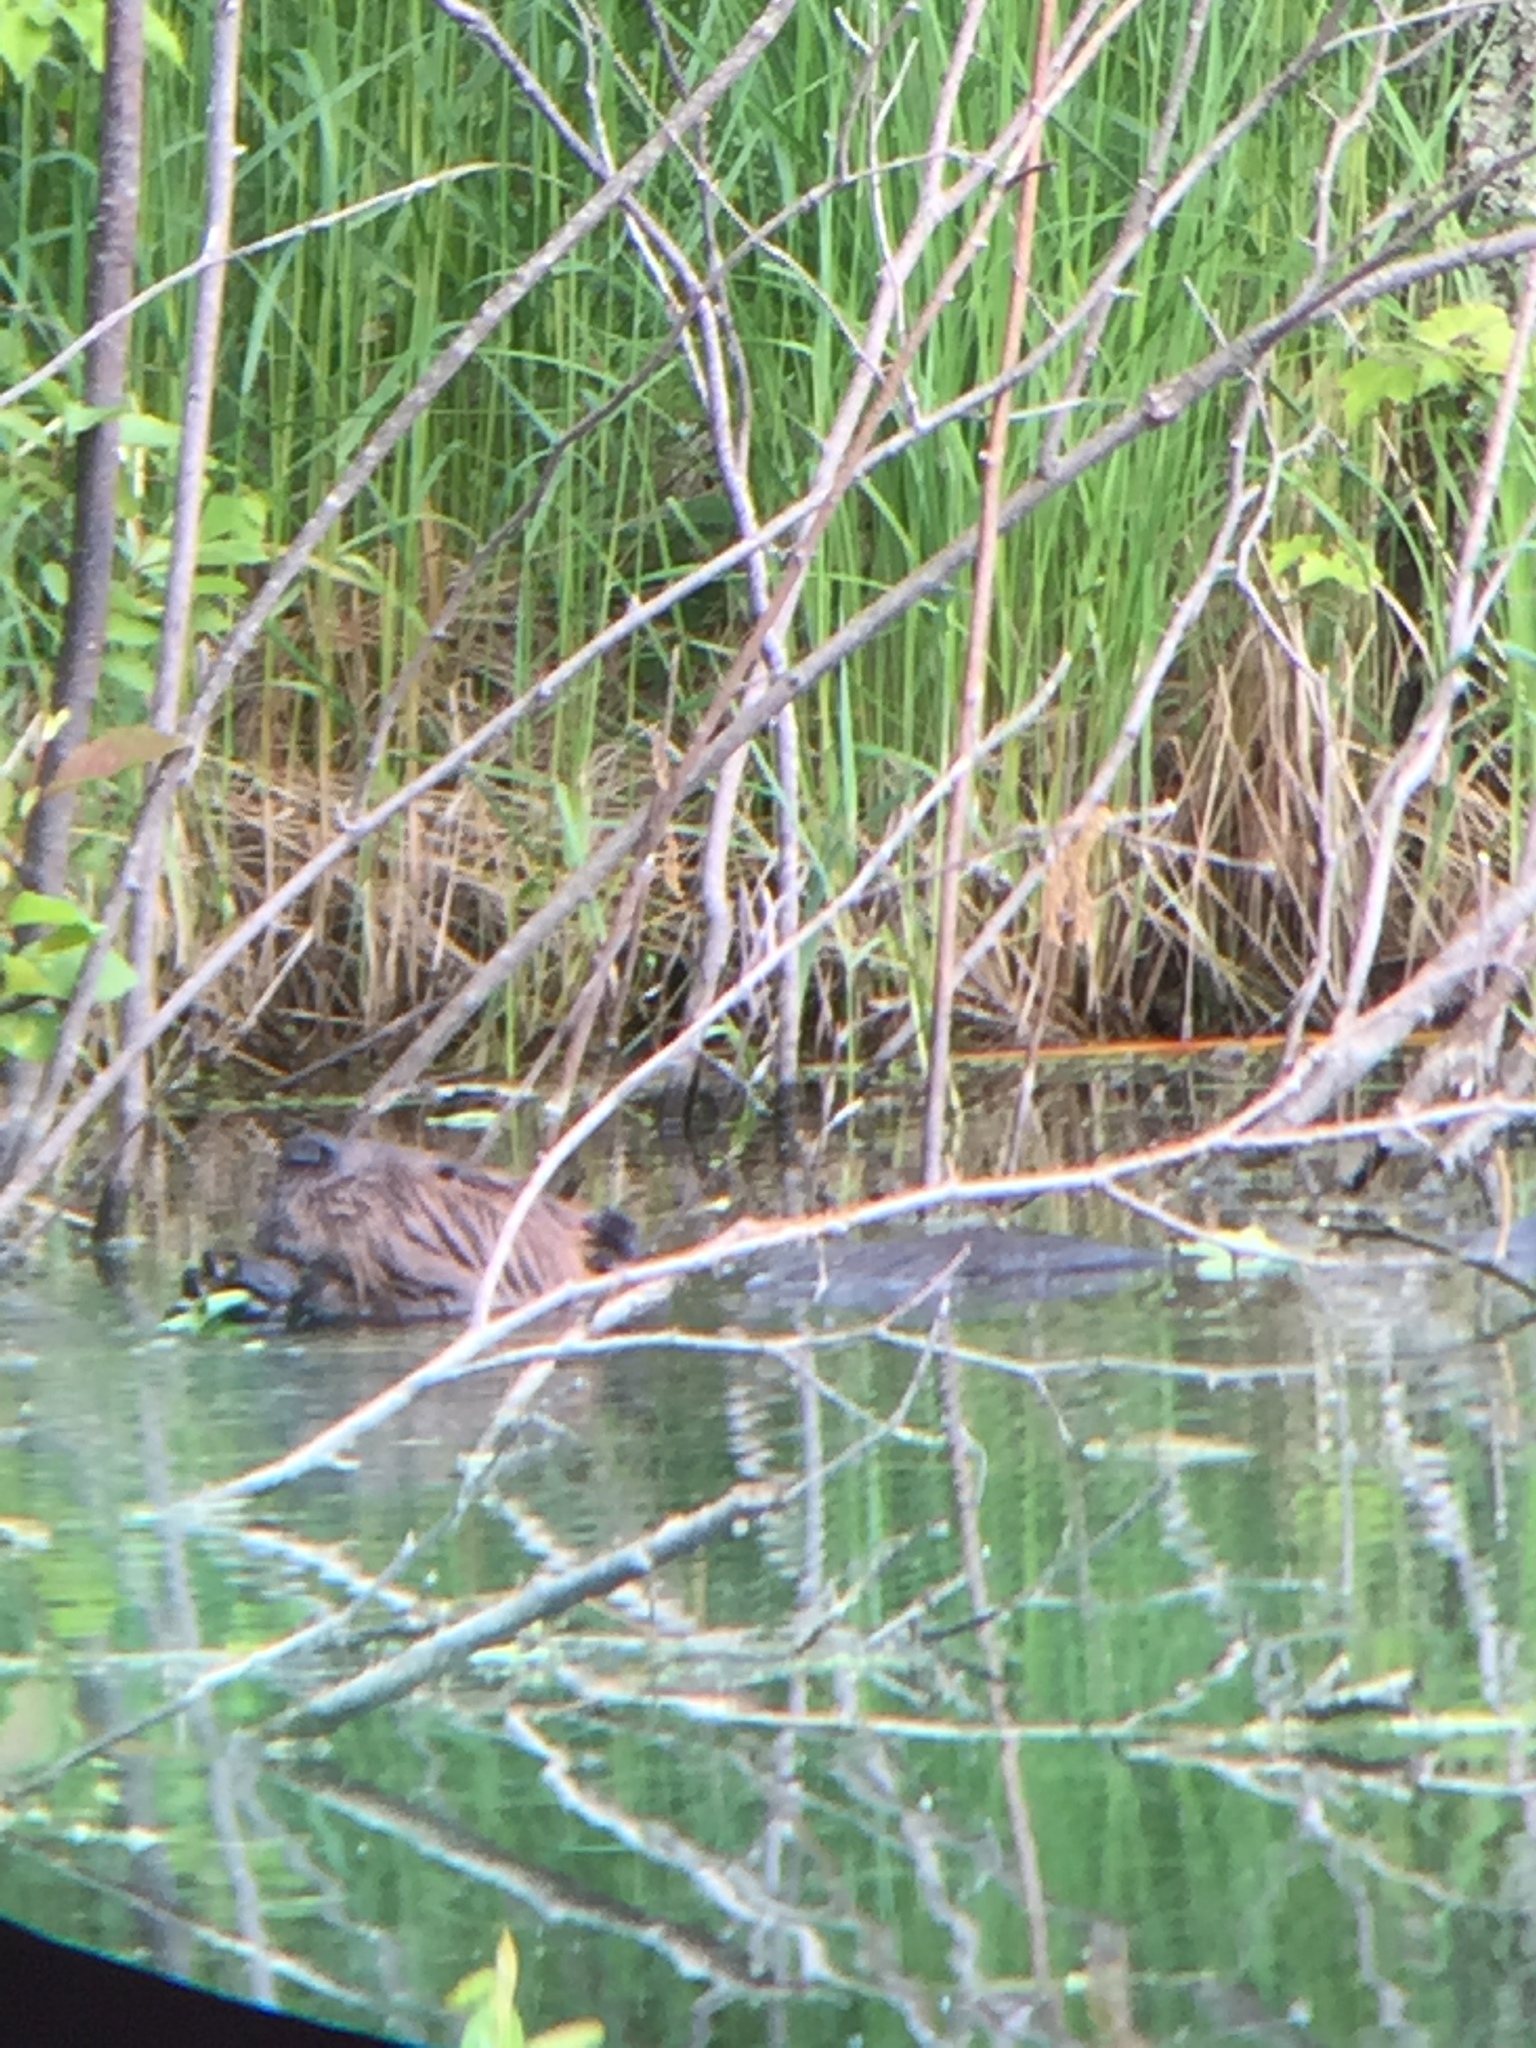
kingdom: Animalia
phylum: Chordata
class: Mammalia
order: Rodentia
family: Castoridae
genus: Castor
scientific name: Castor canadensis
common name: American beaver
